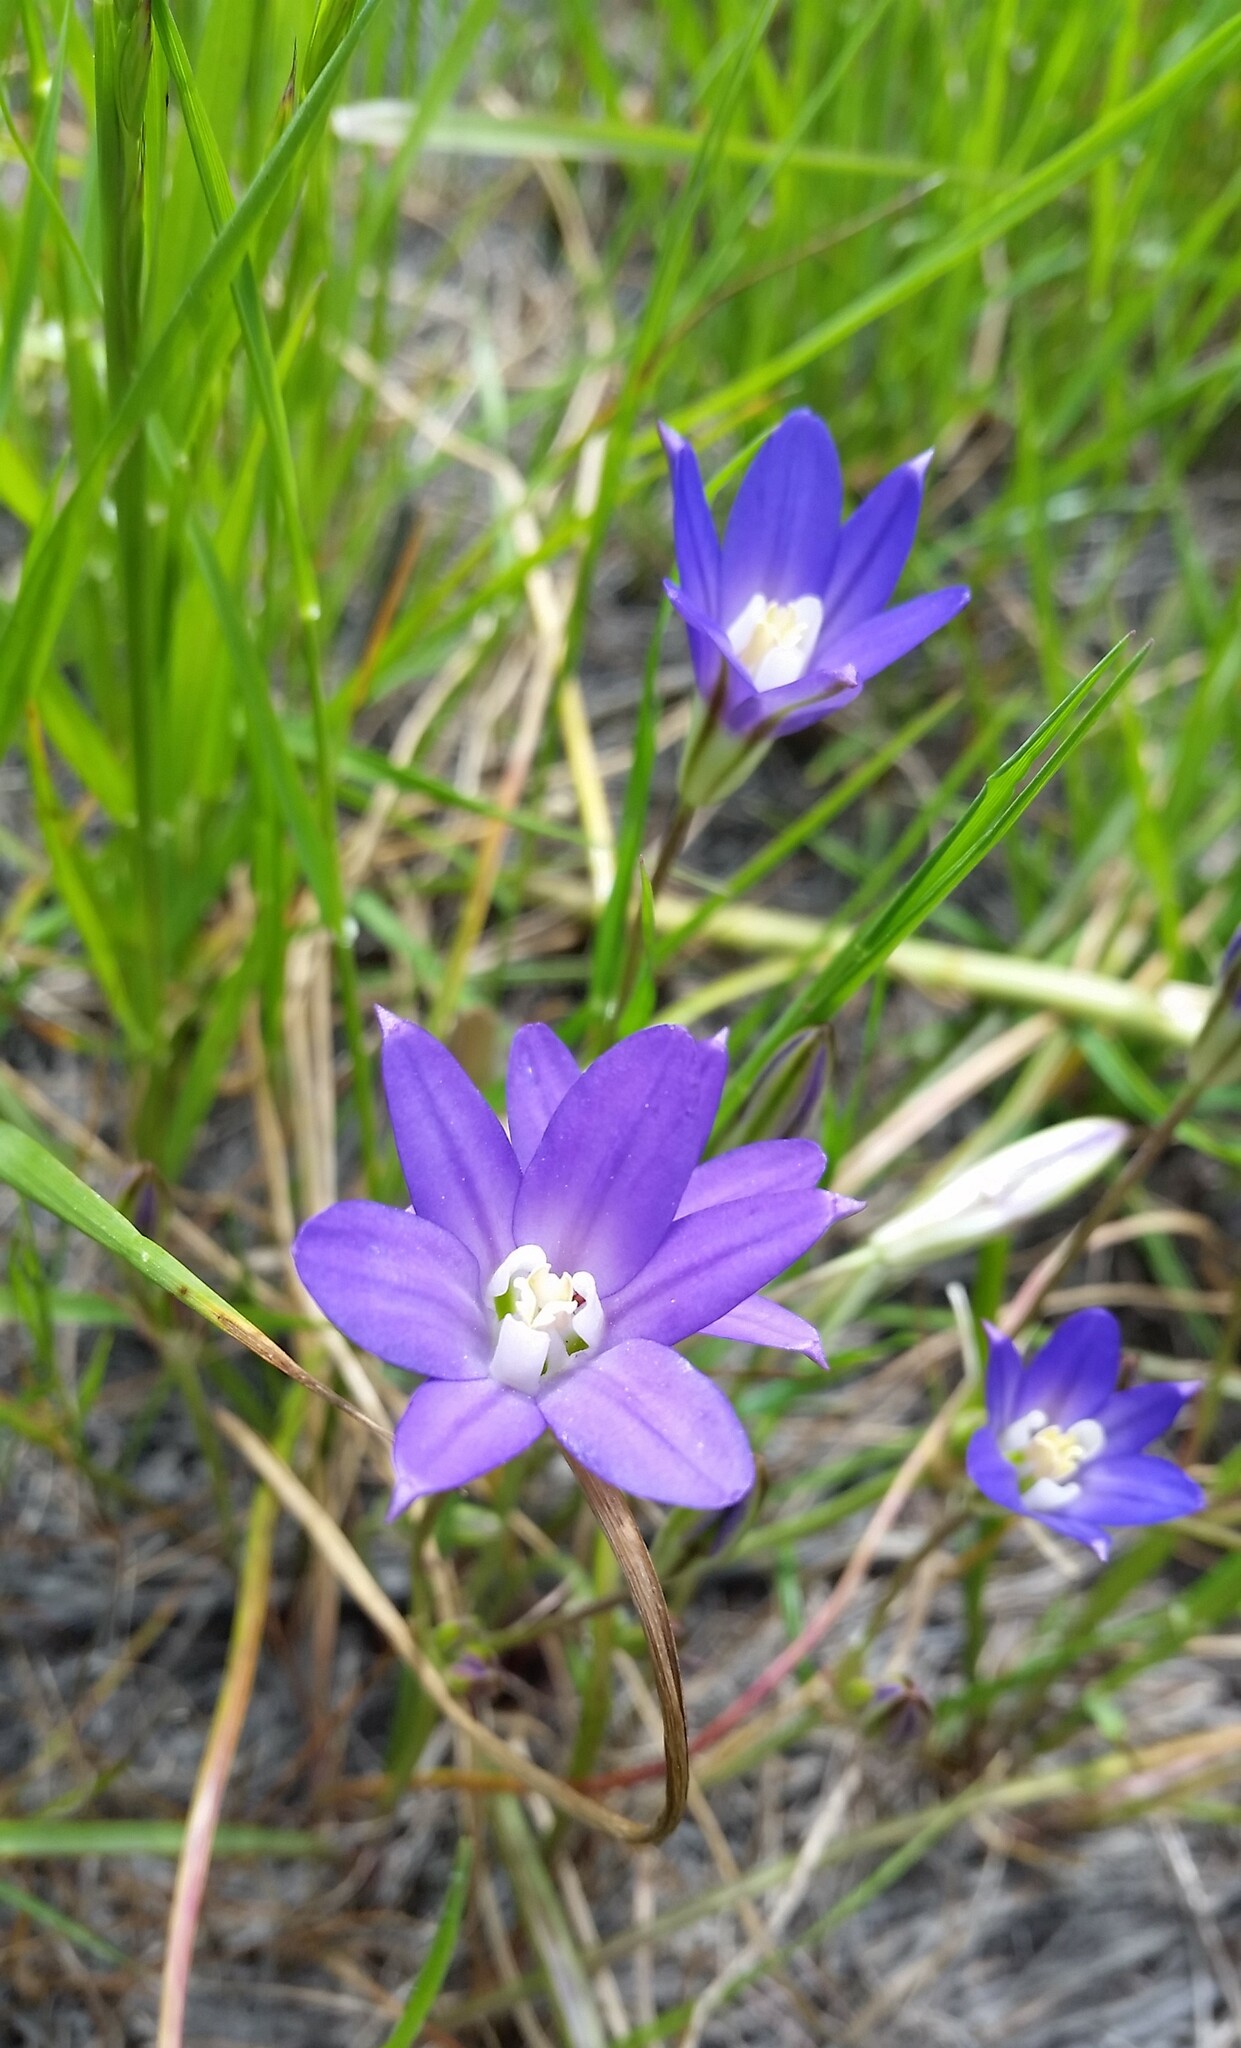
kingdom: Plantae
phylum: Tracheophyta
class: Liliopsida
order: Asparagales
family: Asparagaceae
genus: Brodiaea
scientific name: Brodiaea terrestris
